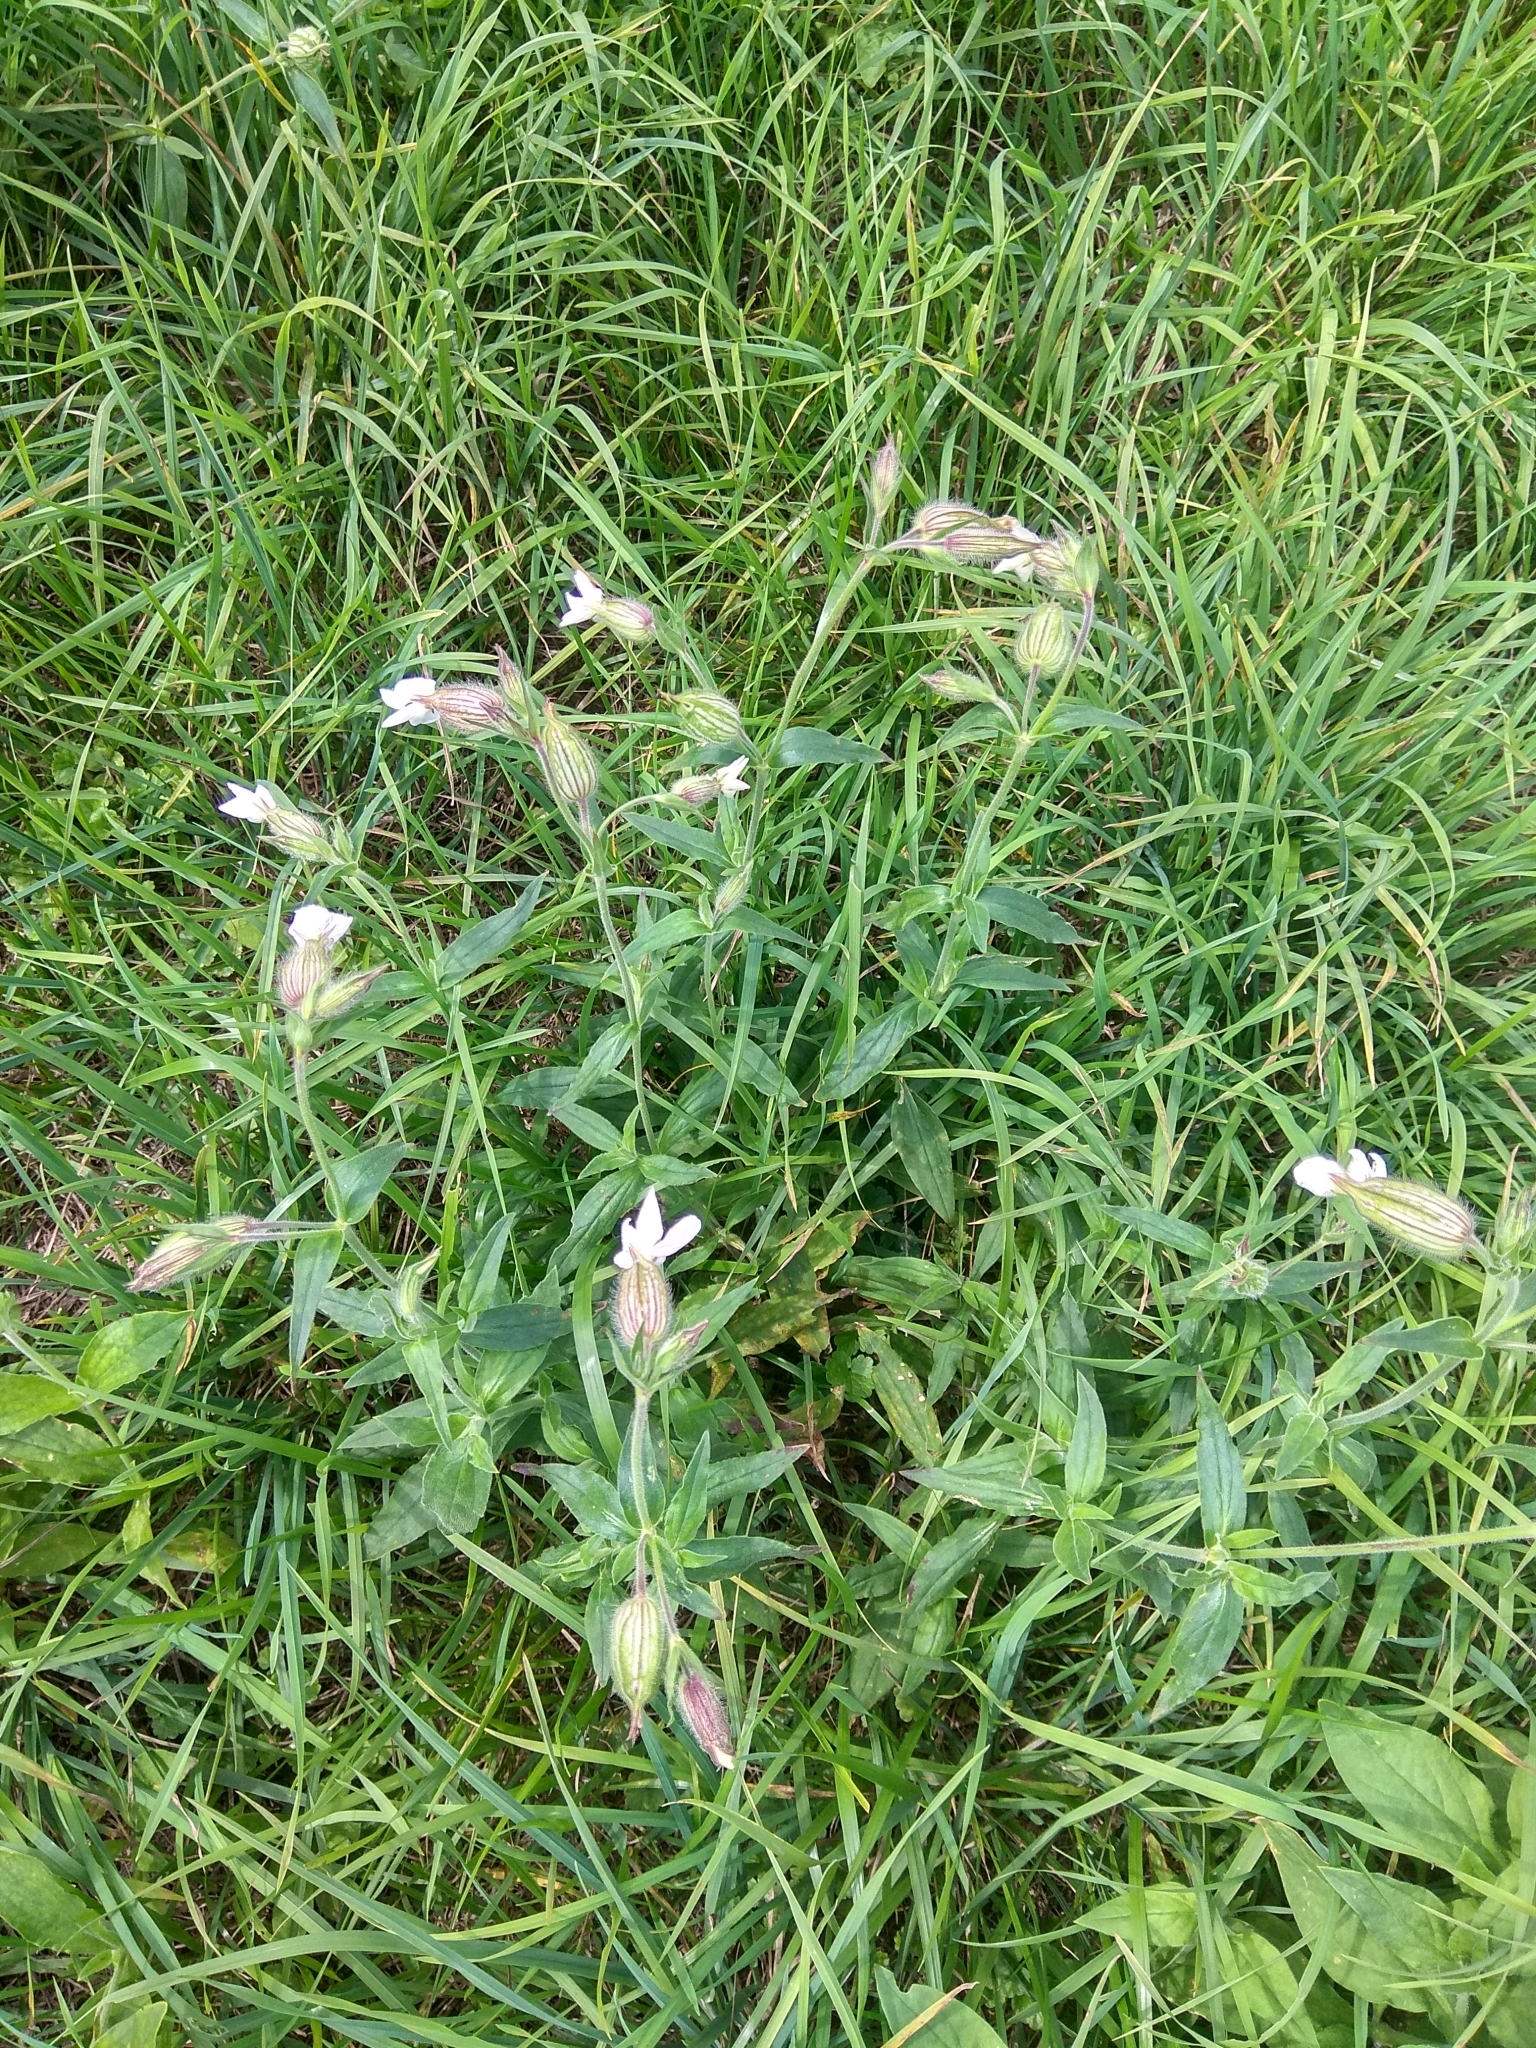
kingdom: Plantae
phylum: Tracheophyta
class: Magnoliopsida
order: Caryophyllales
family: Caryophyllaceae
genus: Silene
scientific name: Silene latifolia
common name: White campion
